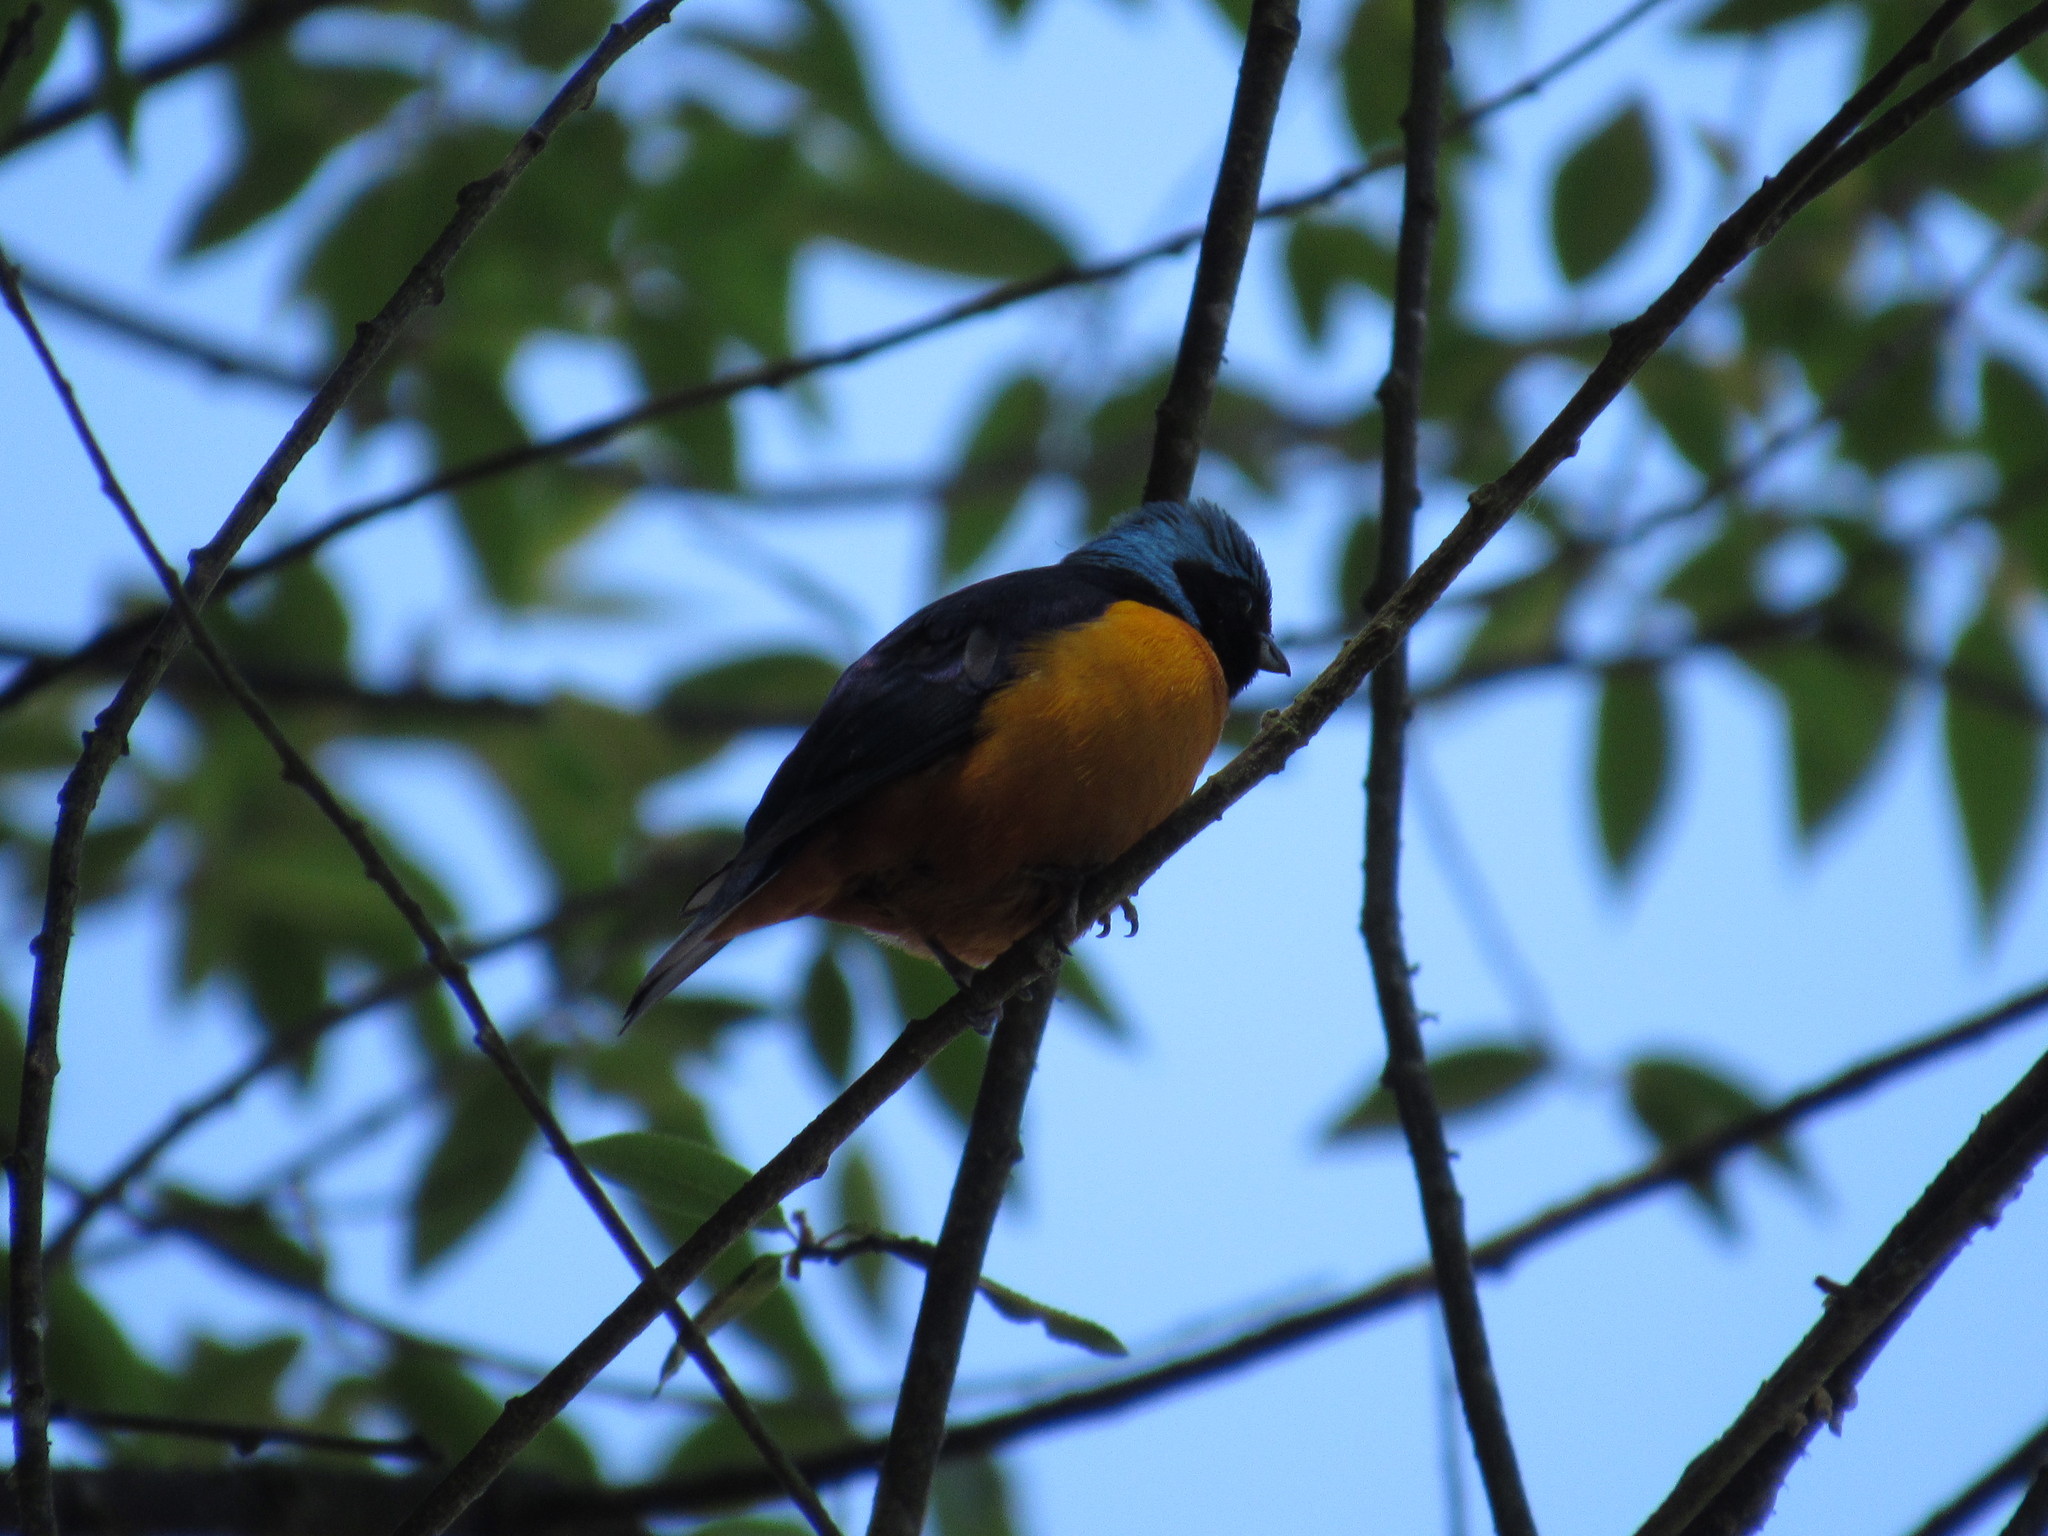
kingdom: Animalia
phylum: Chordata
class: Aves
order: Passeriformes
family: Fringillidae
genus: Euphonia
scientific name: Euphonia elegantissima
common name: Elegant euphonia
